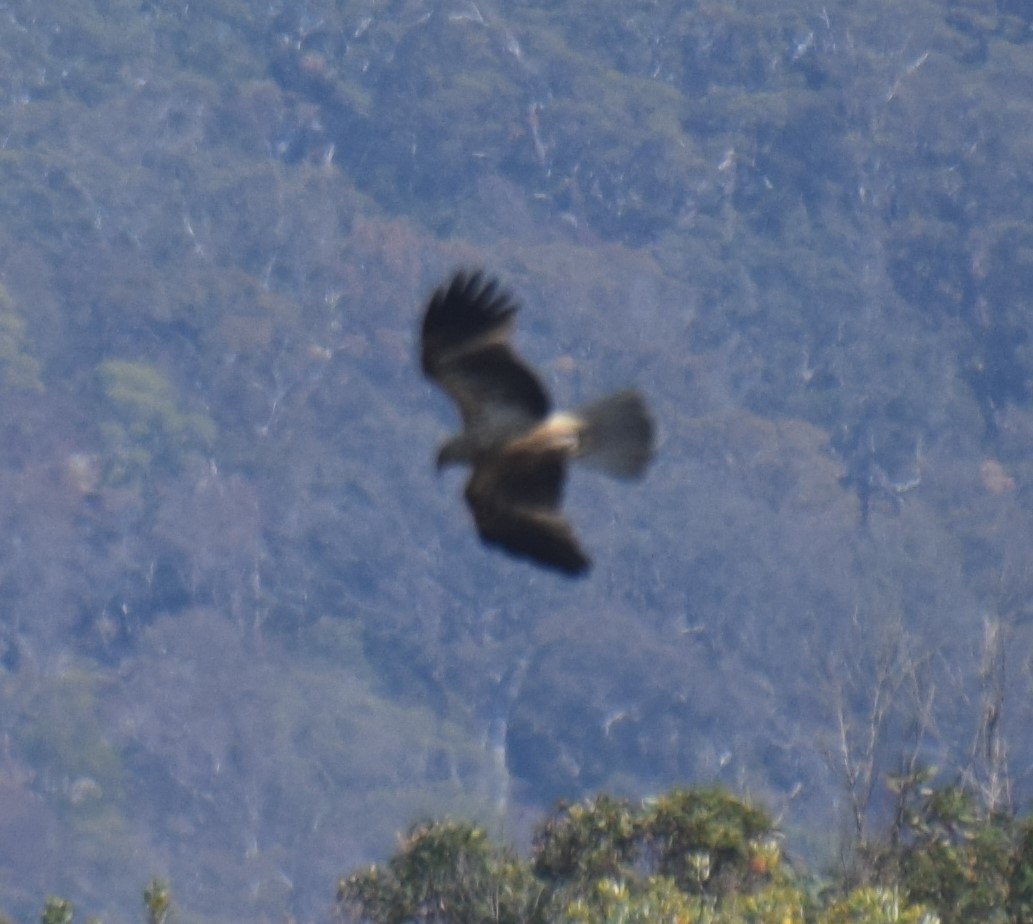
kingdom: Animalia
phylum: Chordata
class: Aves
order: Accipitriformes
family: Accipitridae
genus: Haliastur
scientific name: Haliastur sphenurus
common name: Whistling kite
